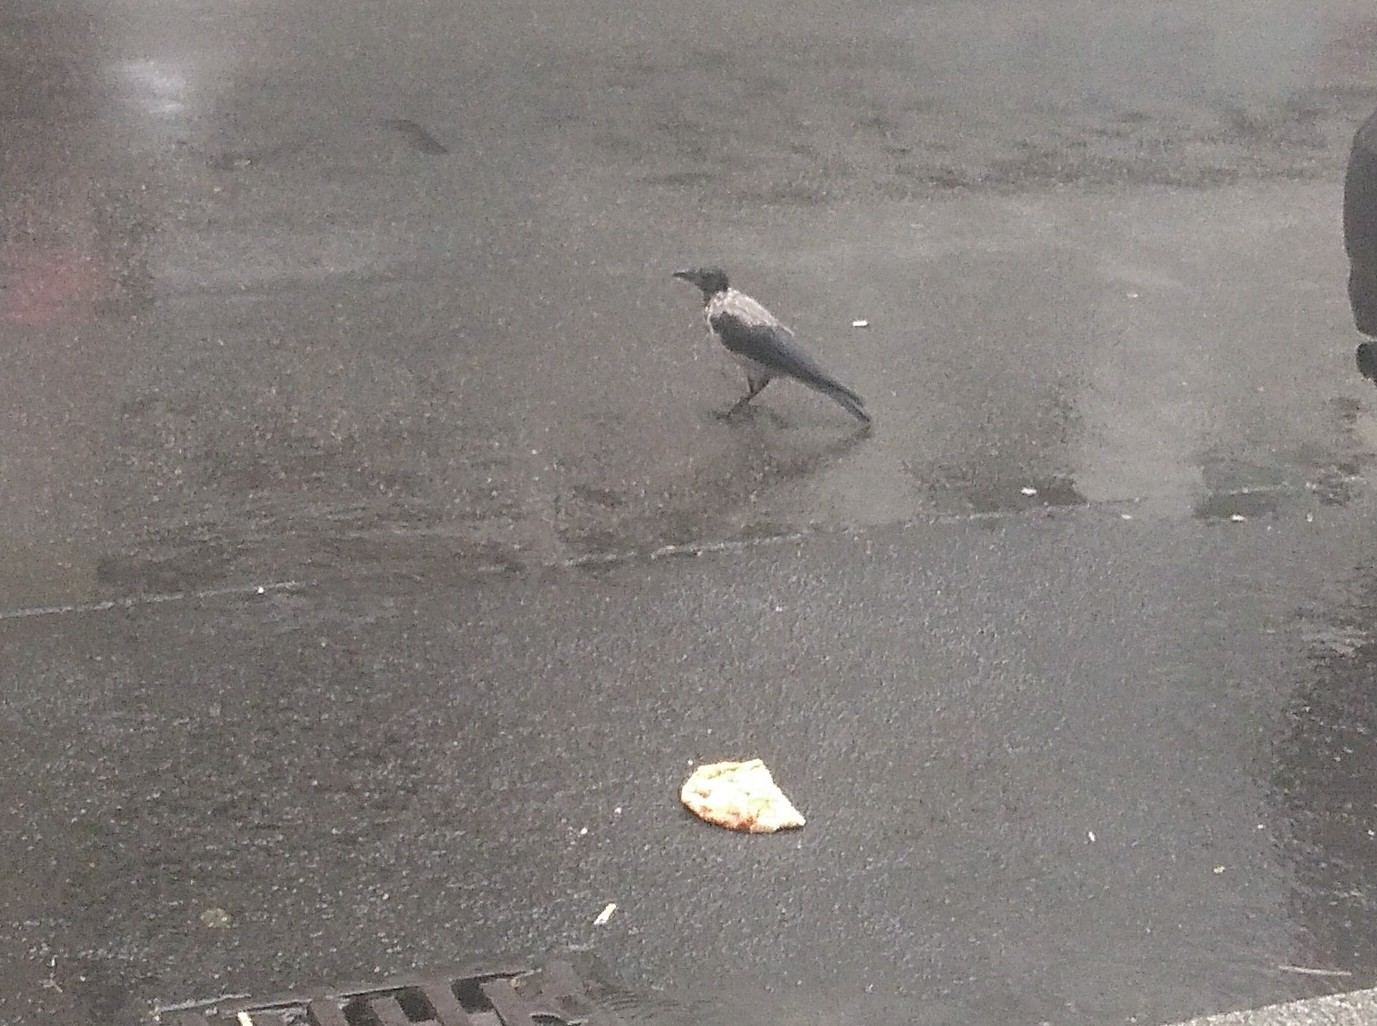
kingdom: Animalia
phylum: Chordata
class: Aves
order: Passeriformes
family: Corvidae
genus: Corvus
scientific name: Corvus cornix
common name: Hooded crow
